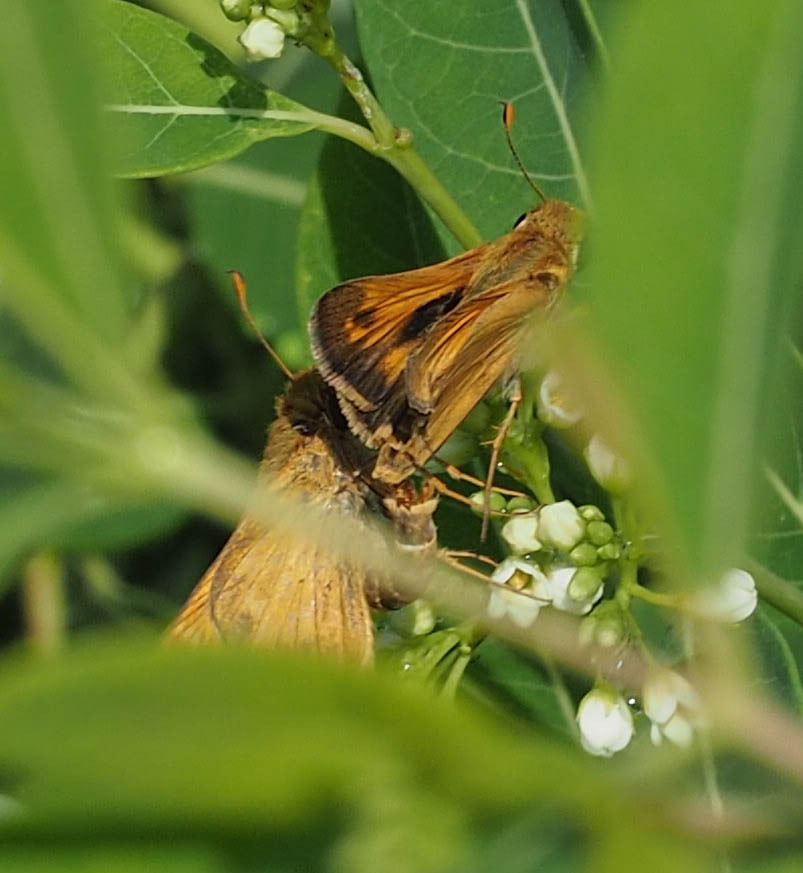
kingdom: Animalia
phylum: Arthropoda
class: Insecta
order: Lepidoptera
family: Hesperiidae
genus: Atalopedes
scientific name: Atalopedes
